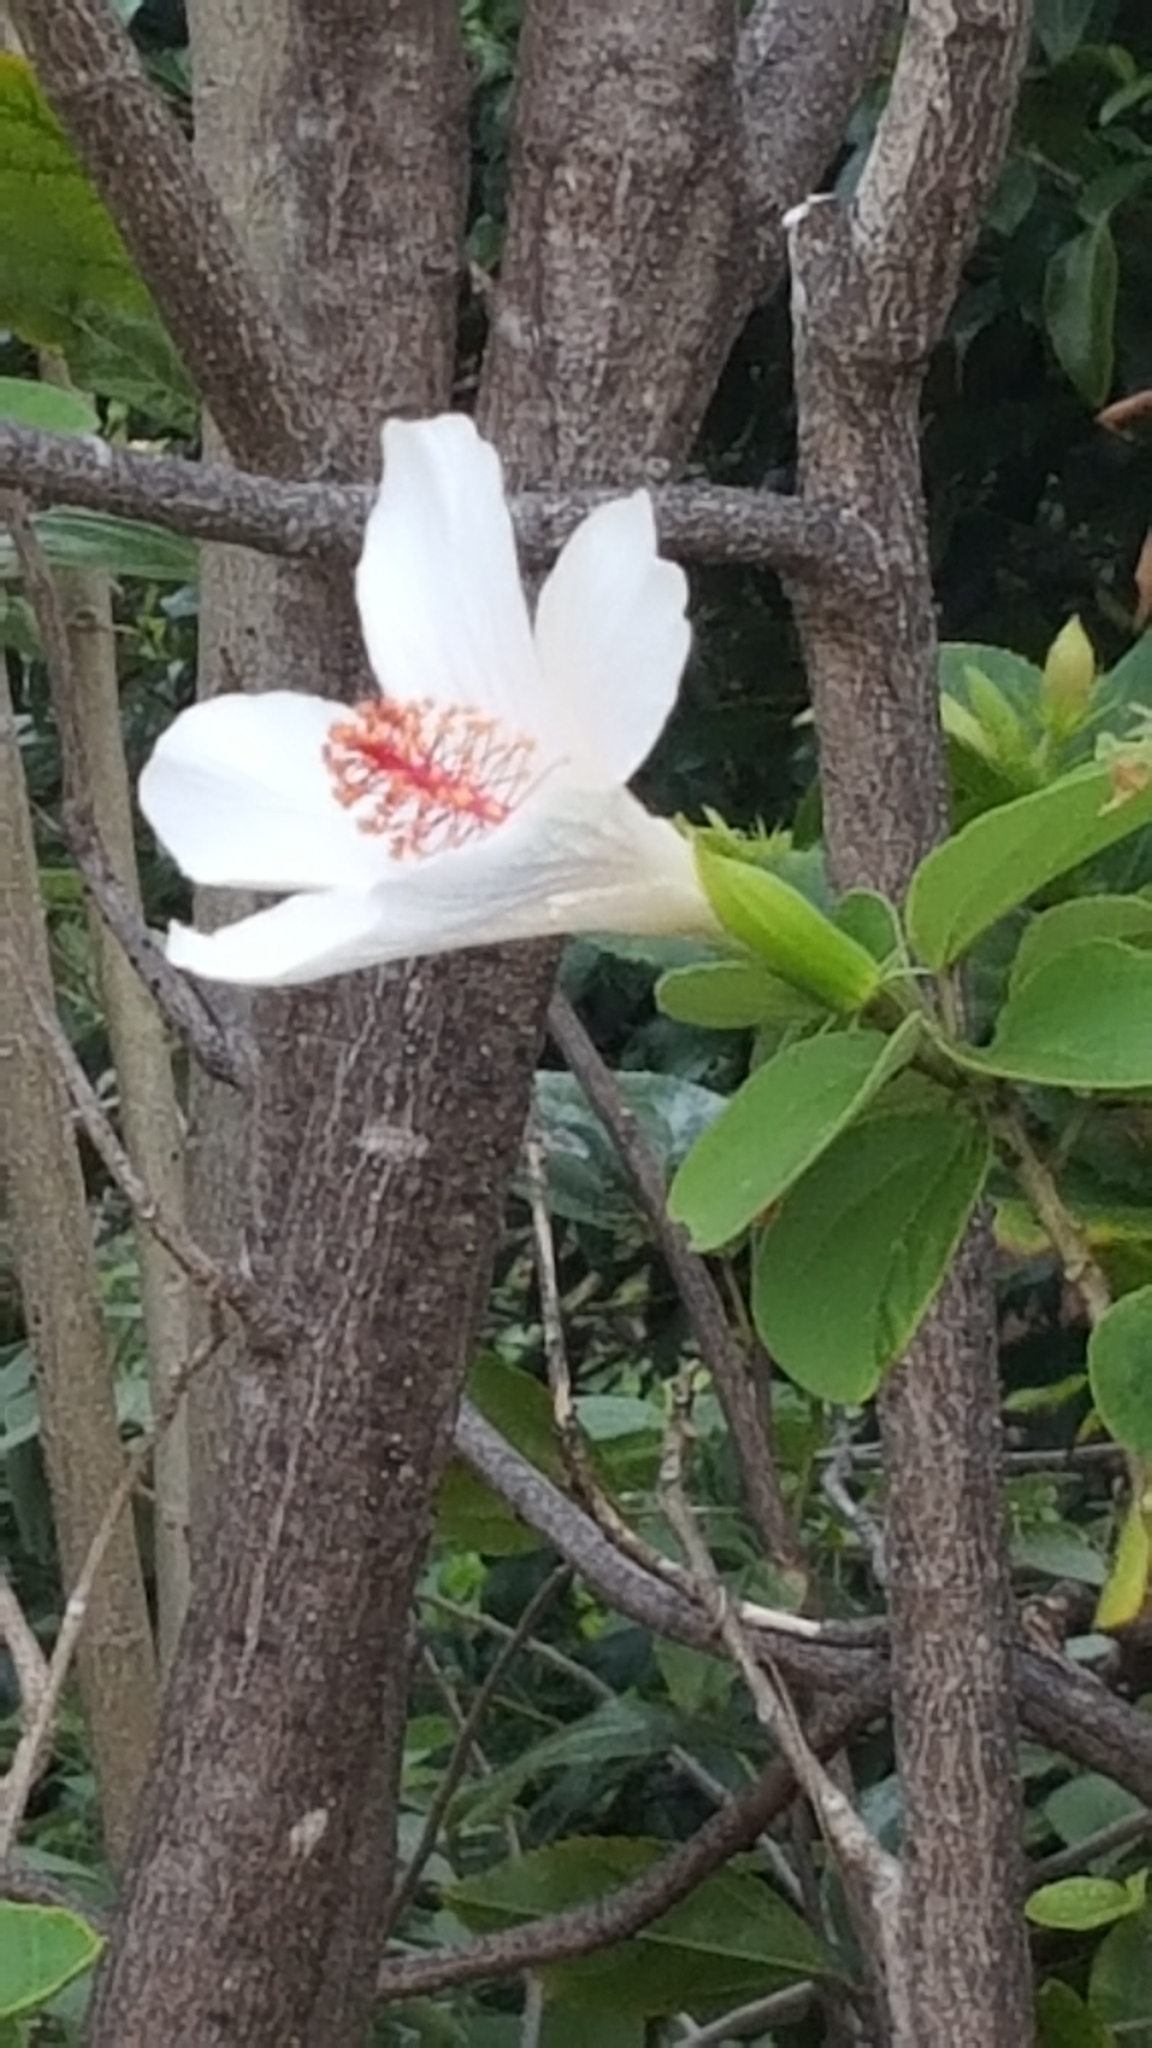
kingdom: Plantae
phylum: Tracheophyta
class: Magnoliopsida
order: Malvales
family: Malvaceae
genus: Hibiscus
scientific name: Hibiscus arnottianus
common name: White molokai hibiscus
